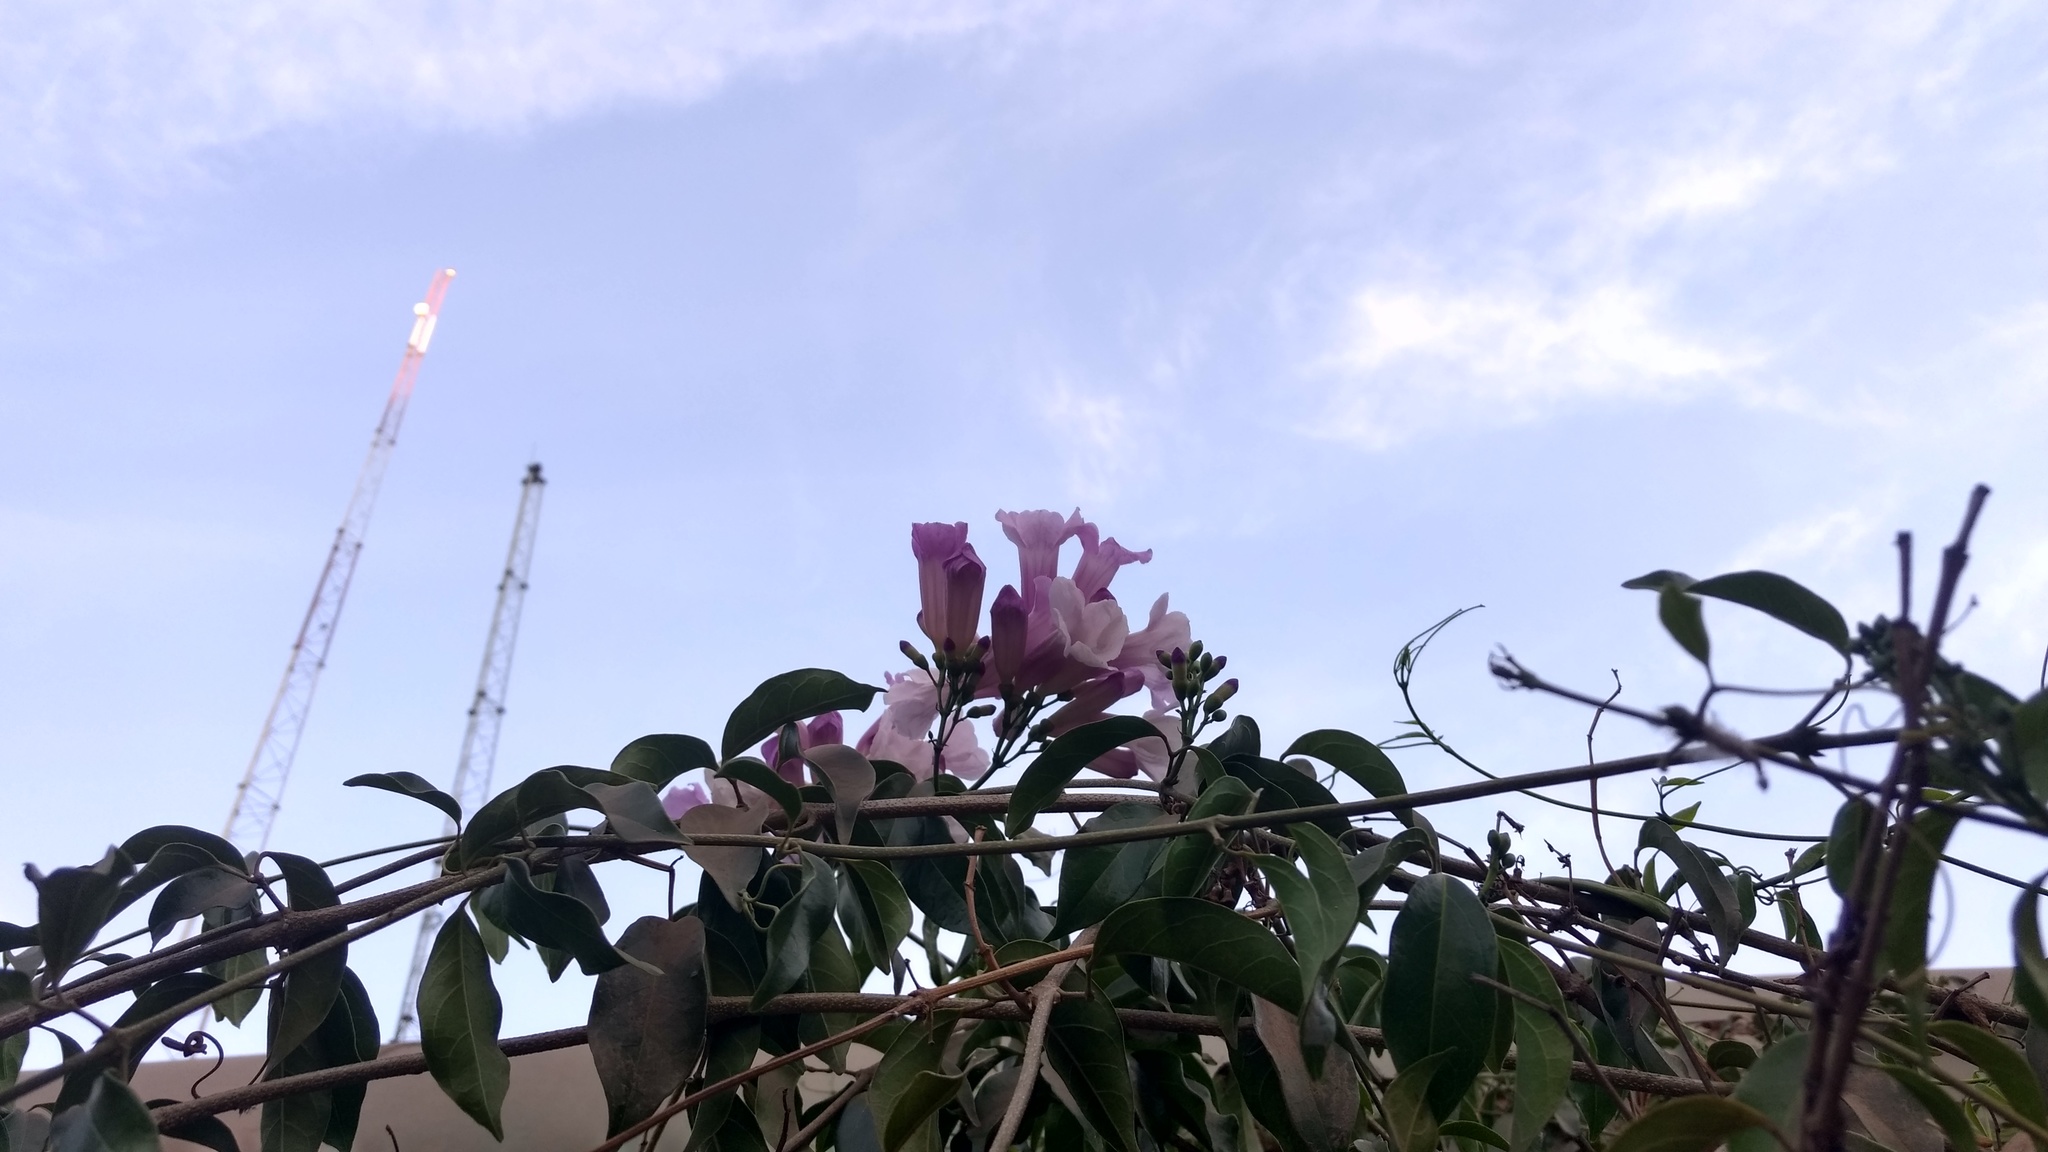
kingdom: Plantae
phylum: Tracheophyta
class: Magnoliopsida
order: Lamiales
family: Bignoniaceae
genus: Mansoa
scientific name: Mansoa alliacea
